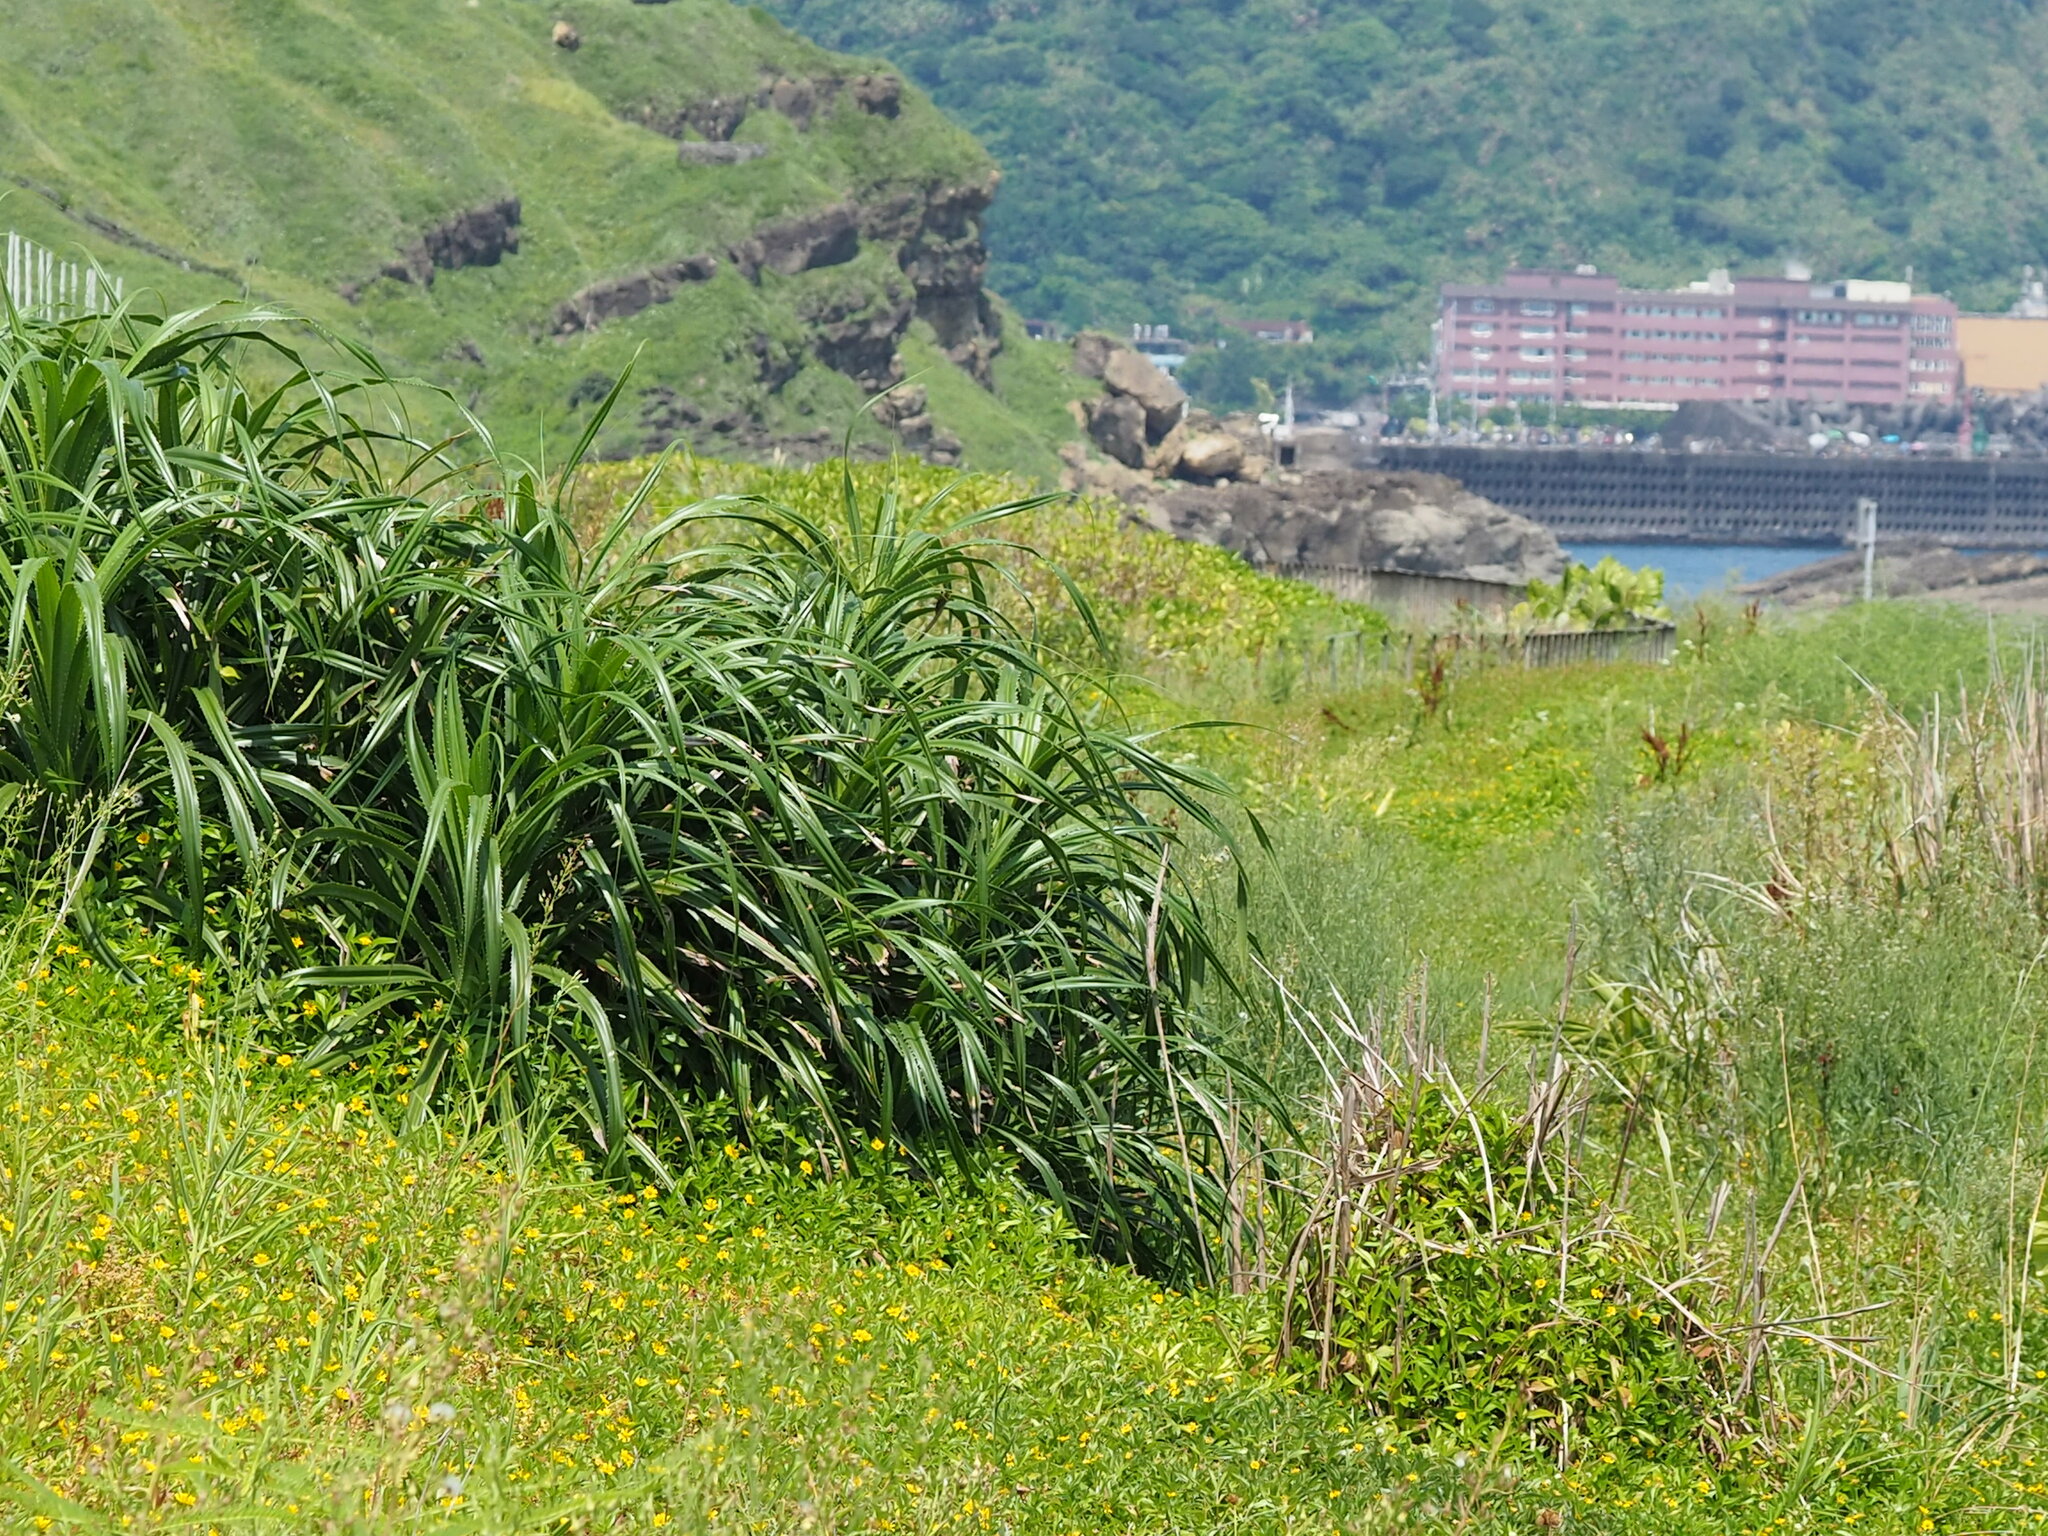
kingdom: Plantae
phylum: Tracheophyta
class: Liliopsida
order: Pandanales
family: Pandanaceae
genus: Pandanus
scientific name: Pandanus odorifer
